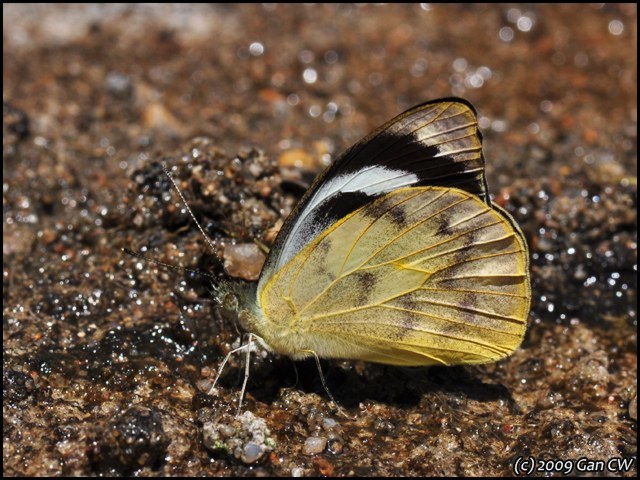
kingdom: Animalia
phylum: Arthropoda
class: Insecta
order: Lepidoptera
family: Pieridae
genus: Appias
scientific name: Appias pandione
